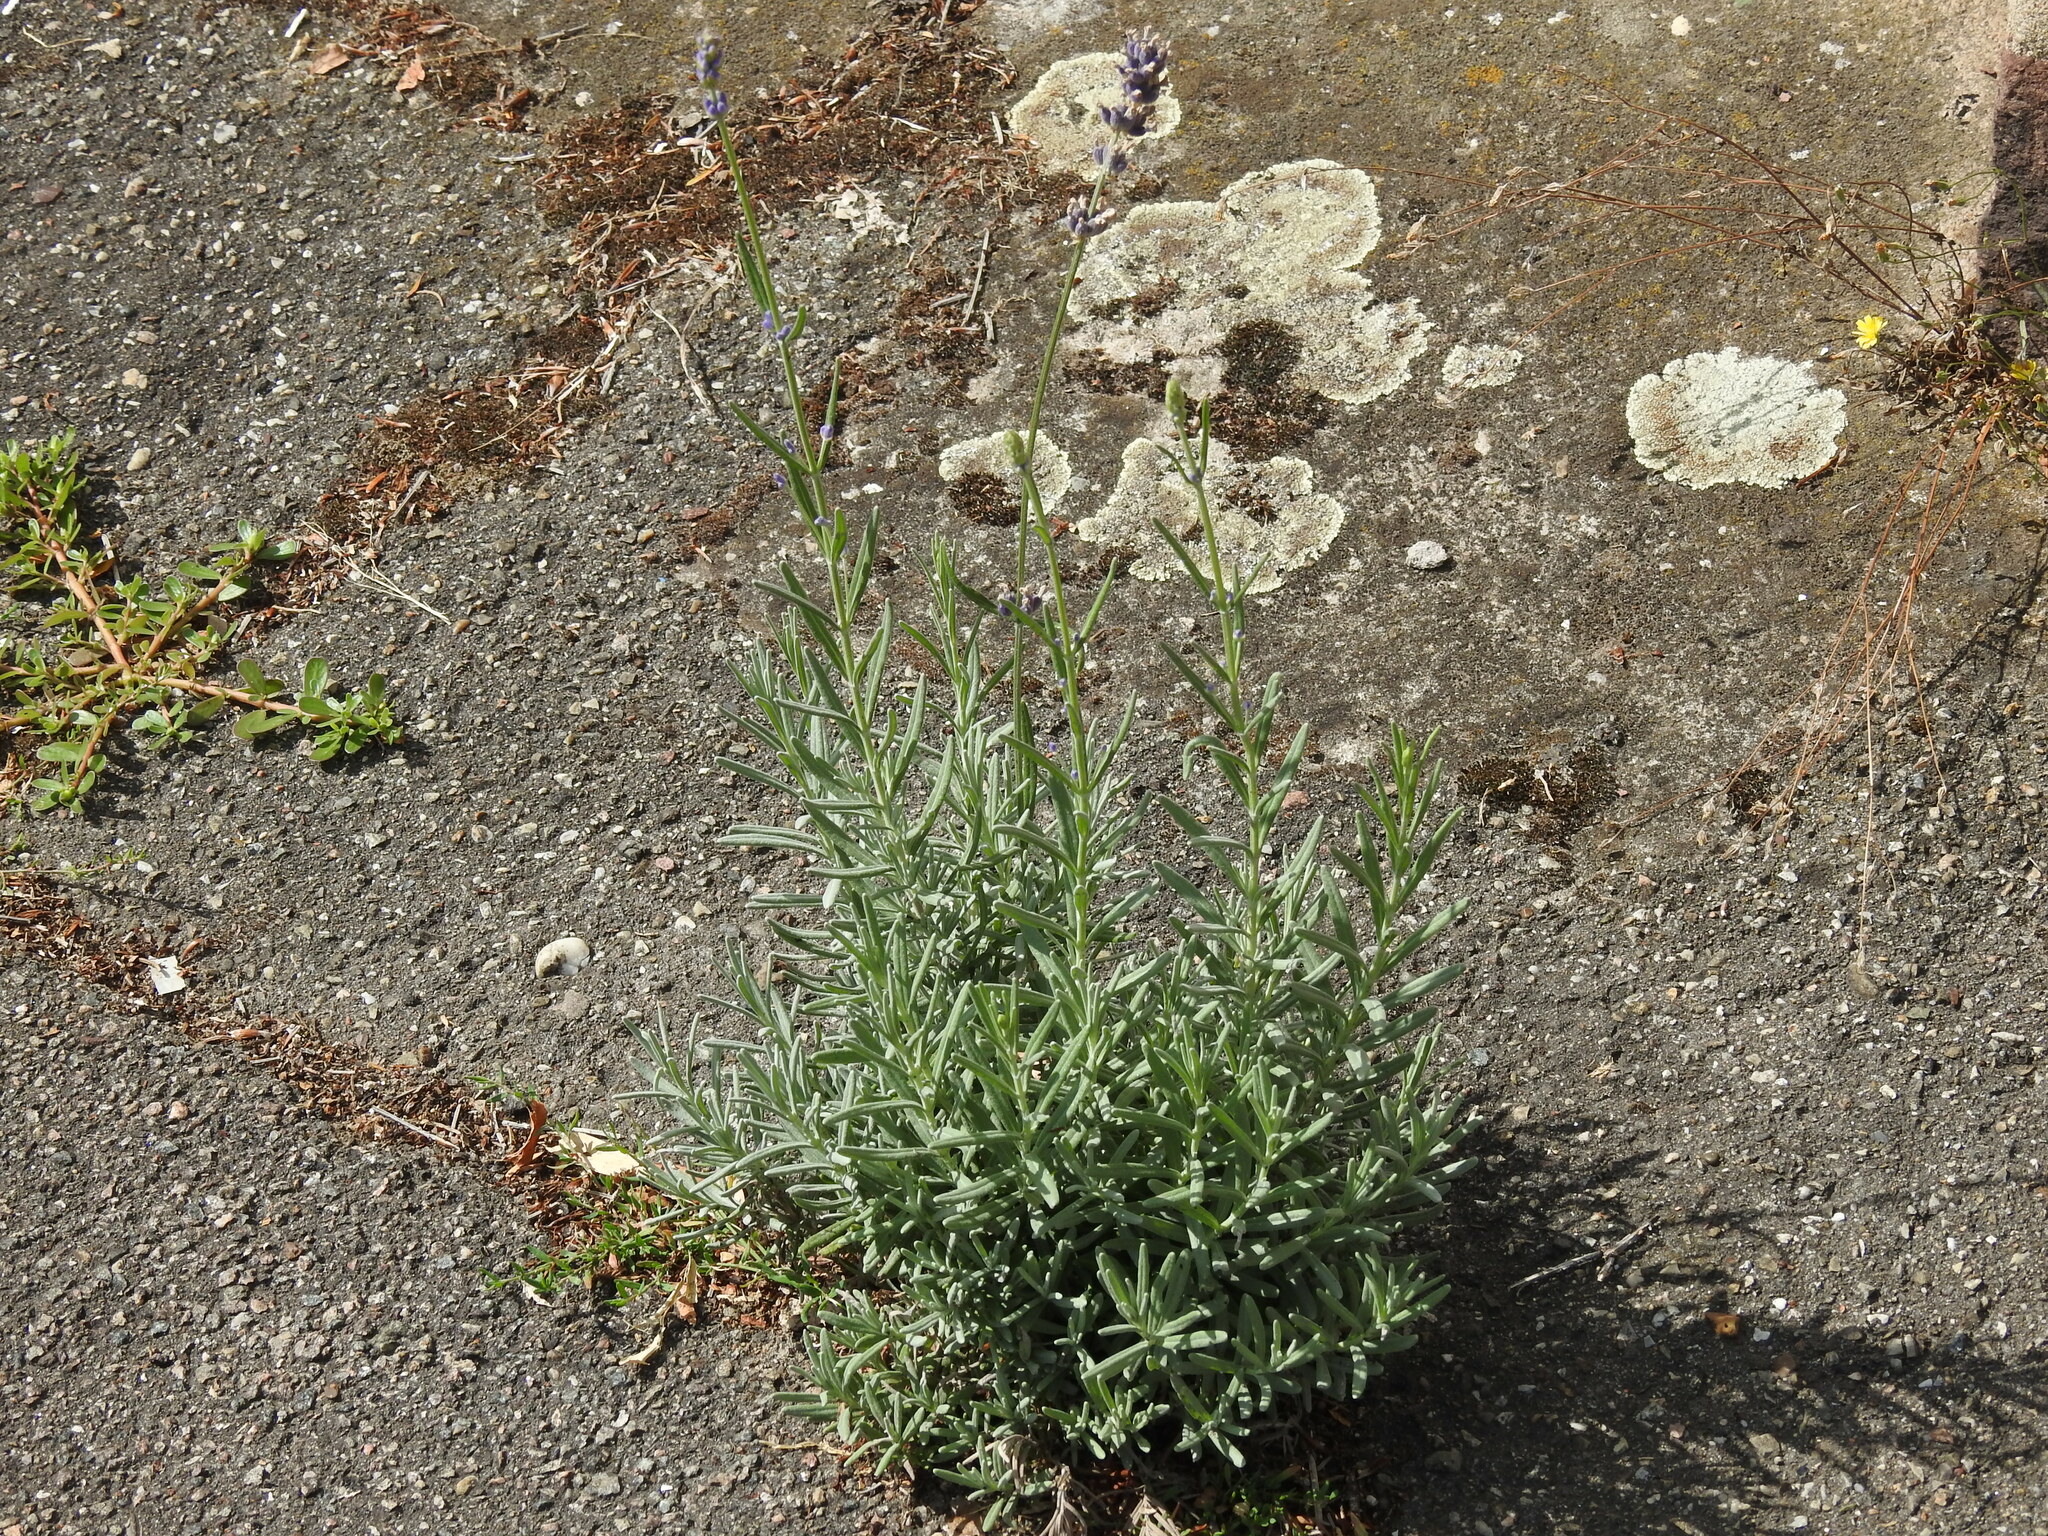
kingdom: Plantae
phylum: Tracheophyta
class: Magnoliopsida
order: Lamiales
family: Lamiaceae
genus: Lavandula
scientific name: Lavandula angustifolia
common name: Garden lavender
